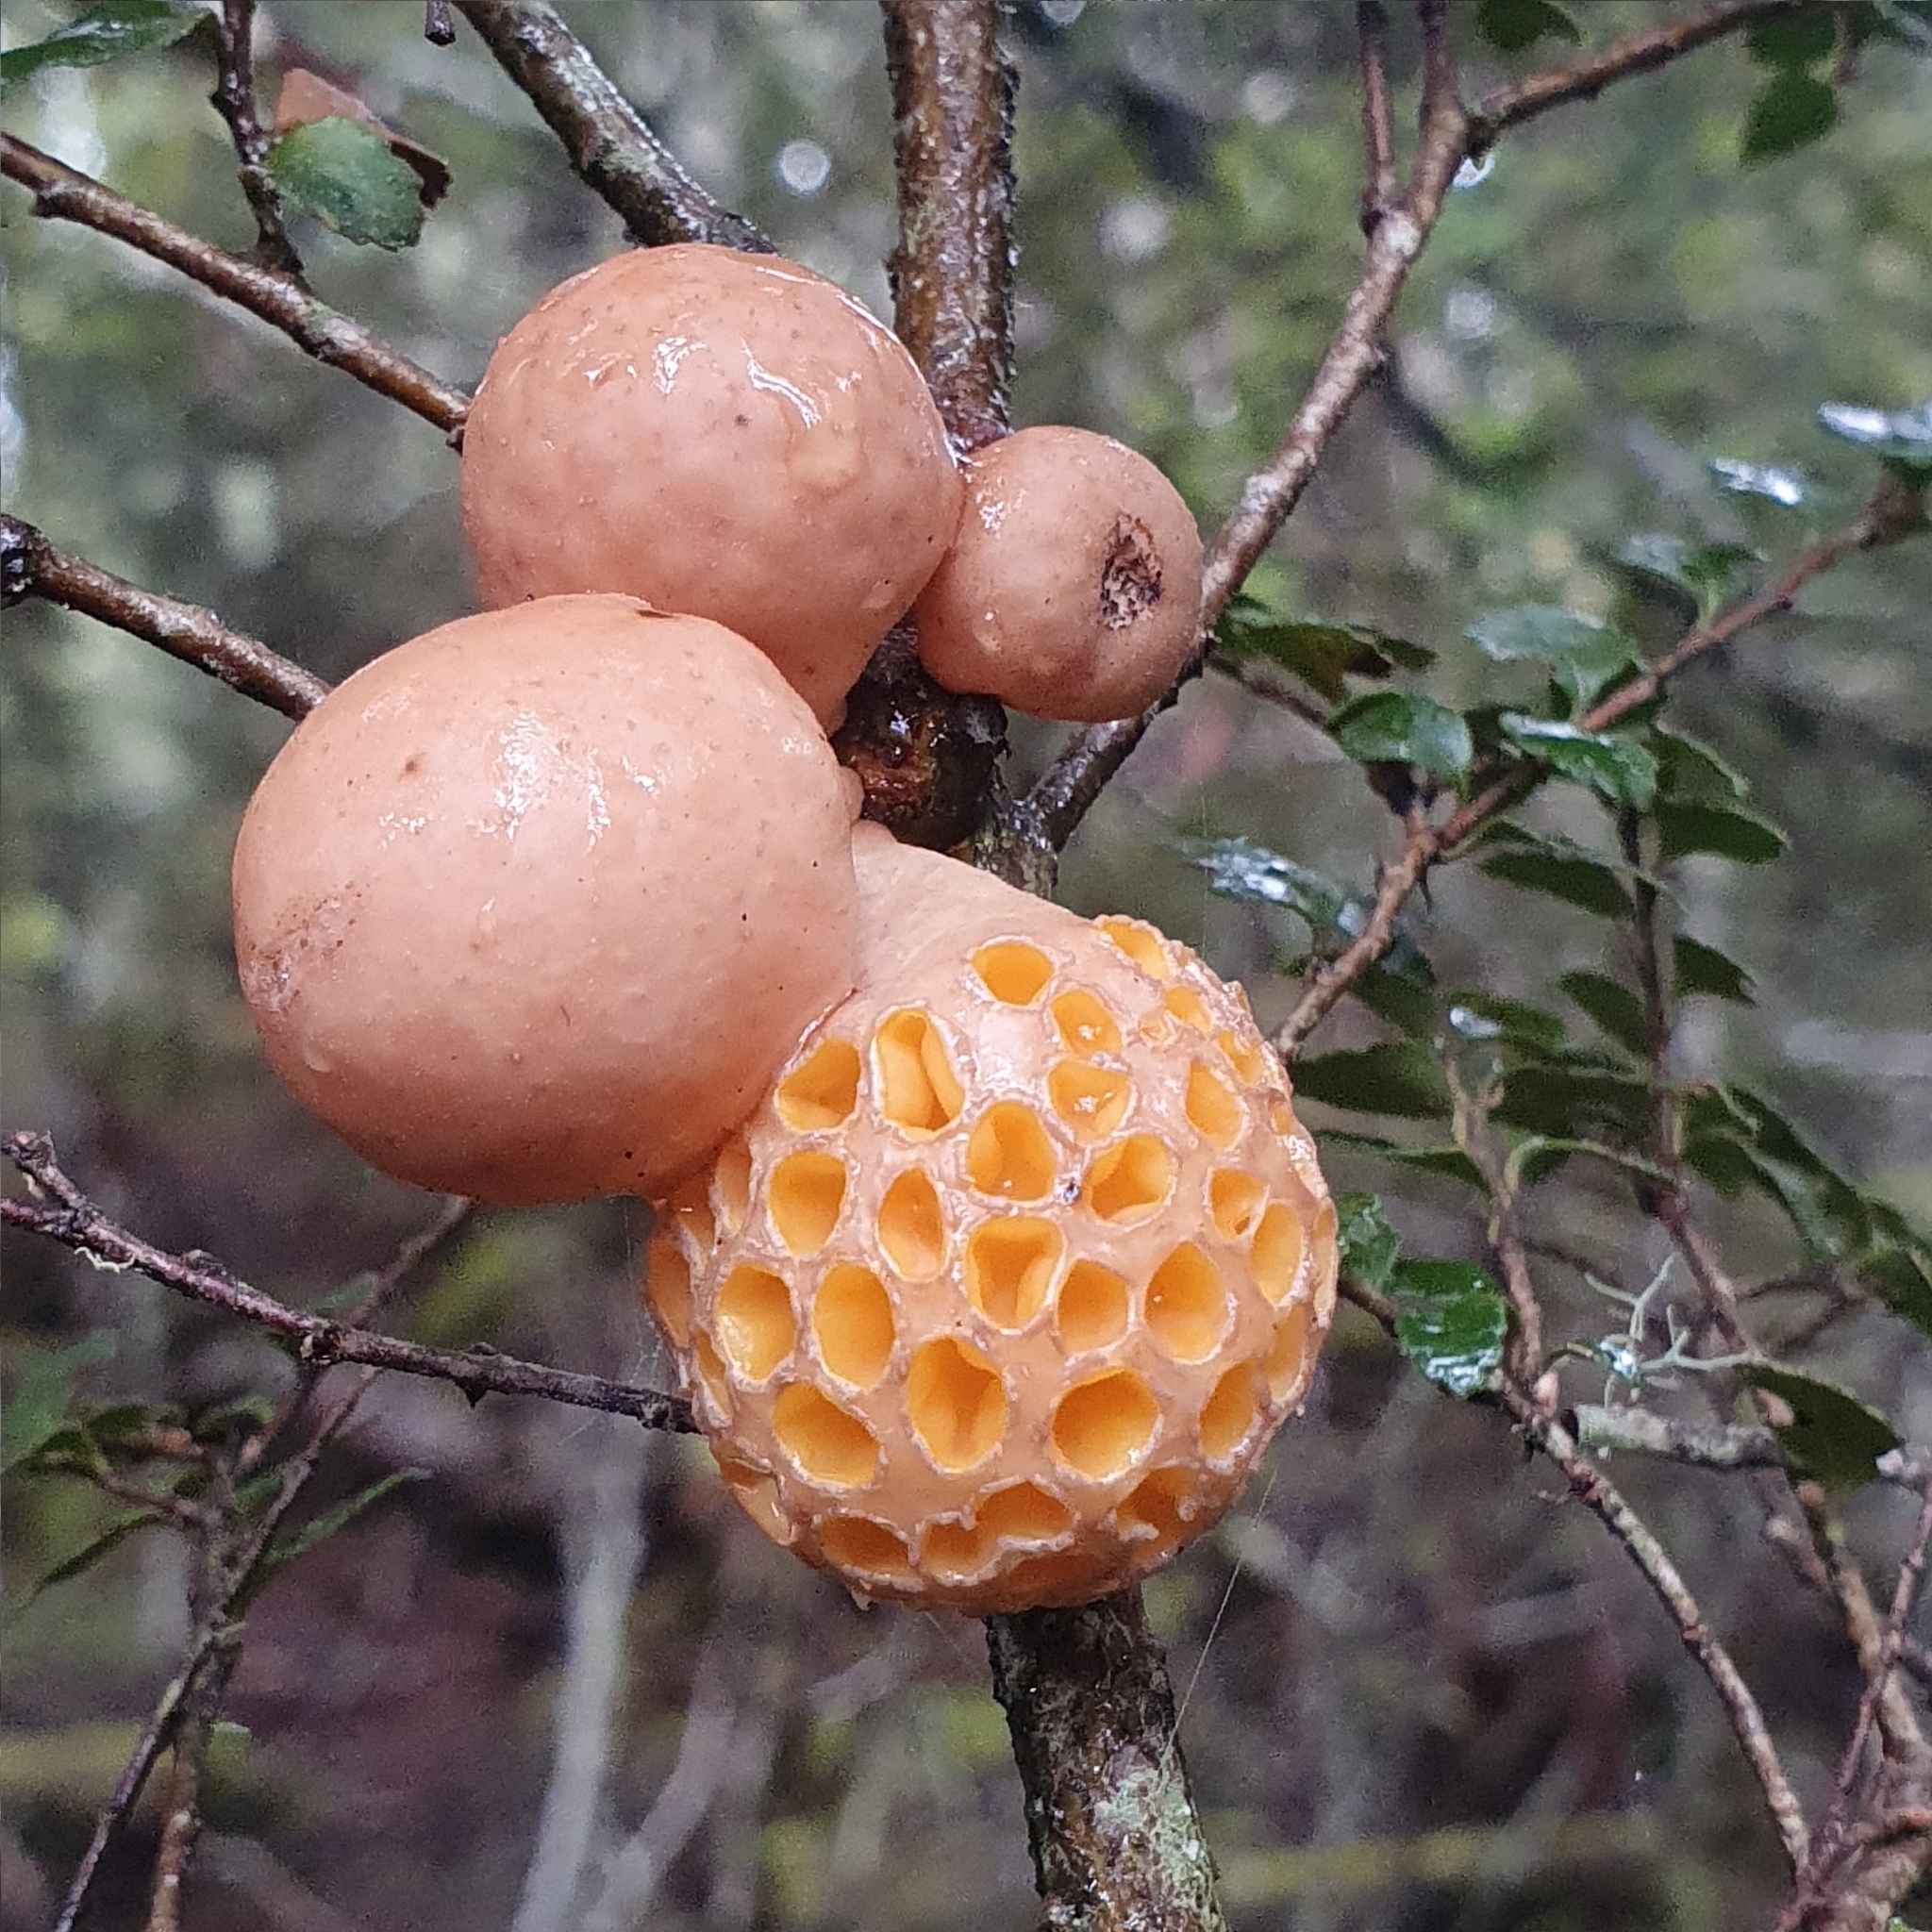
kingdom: Fungi
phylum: Ascomycota
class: Leotiomycetes
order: Cyttariales
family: Cyttariaceae
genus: Cyttaria
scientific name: Cyttaria gunnii
